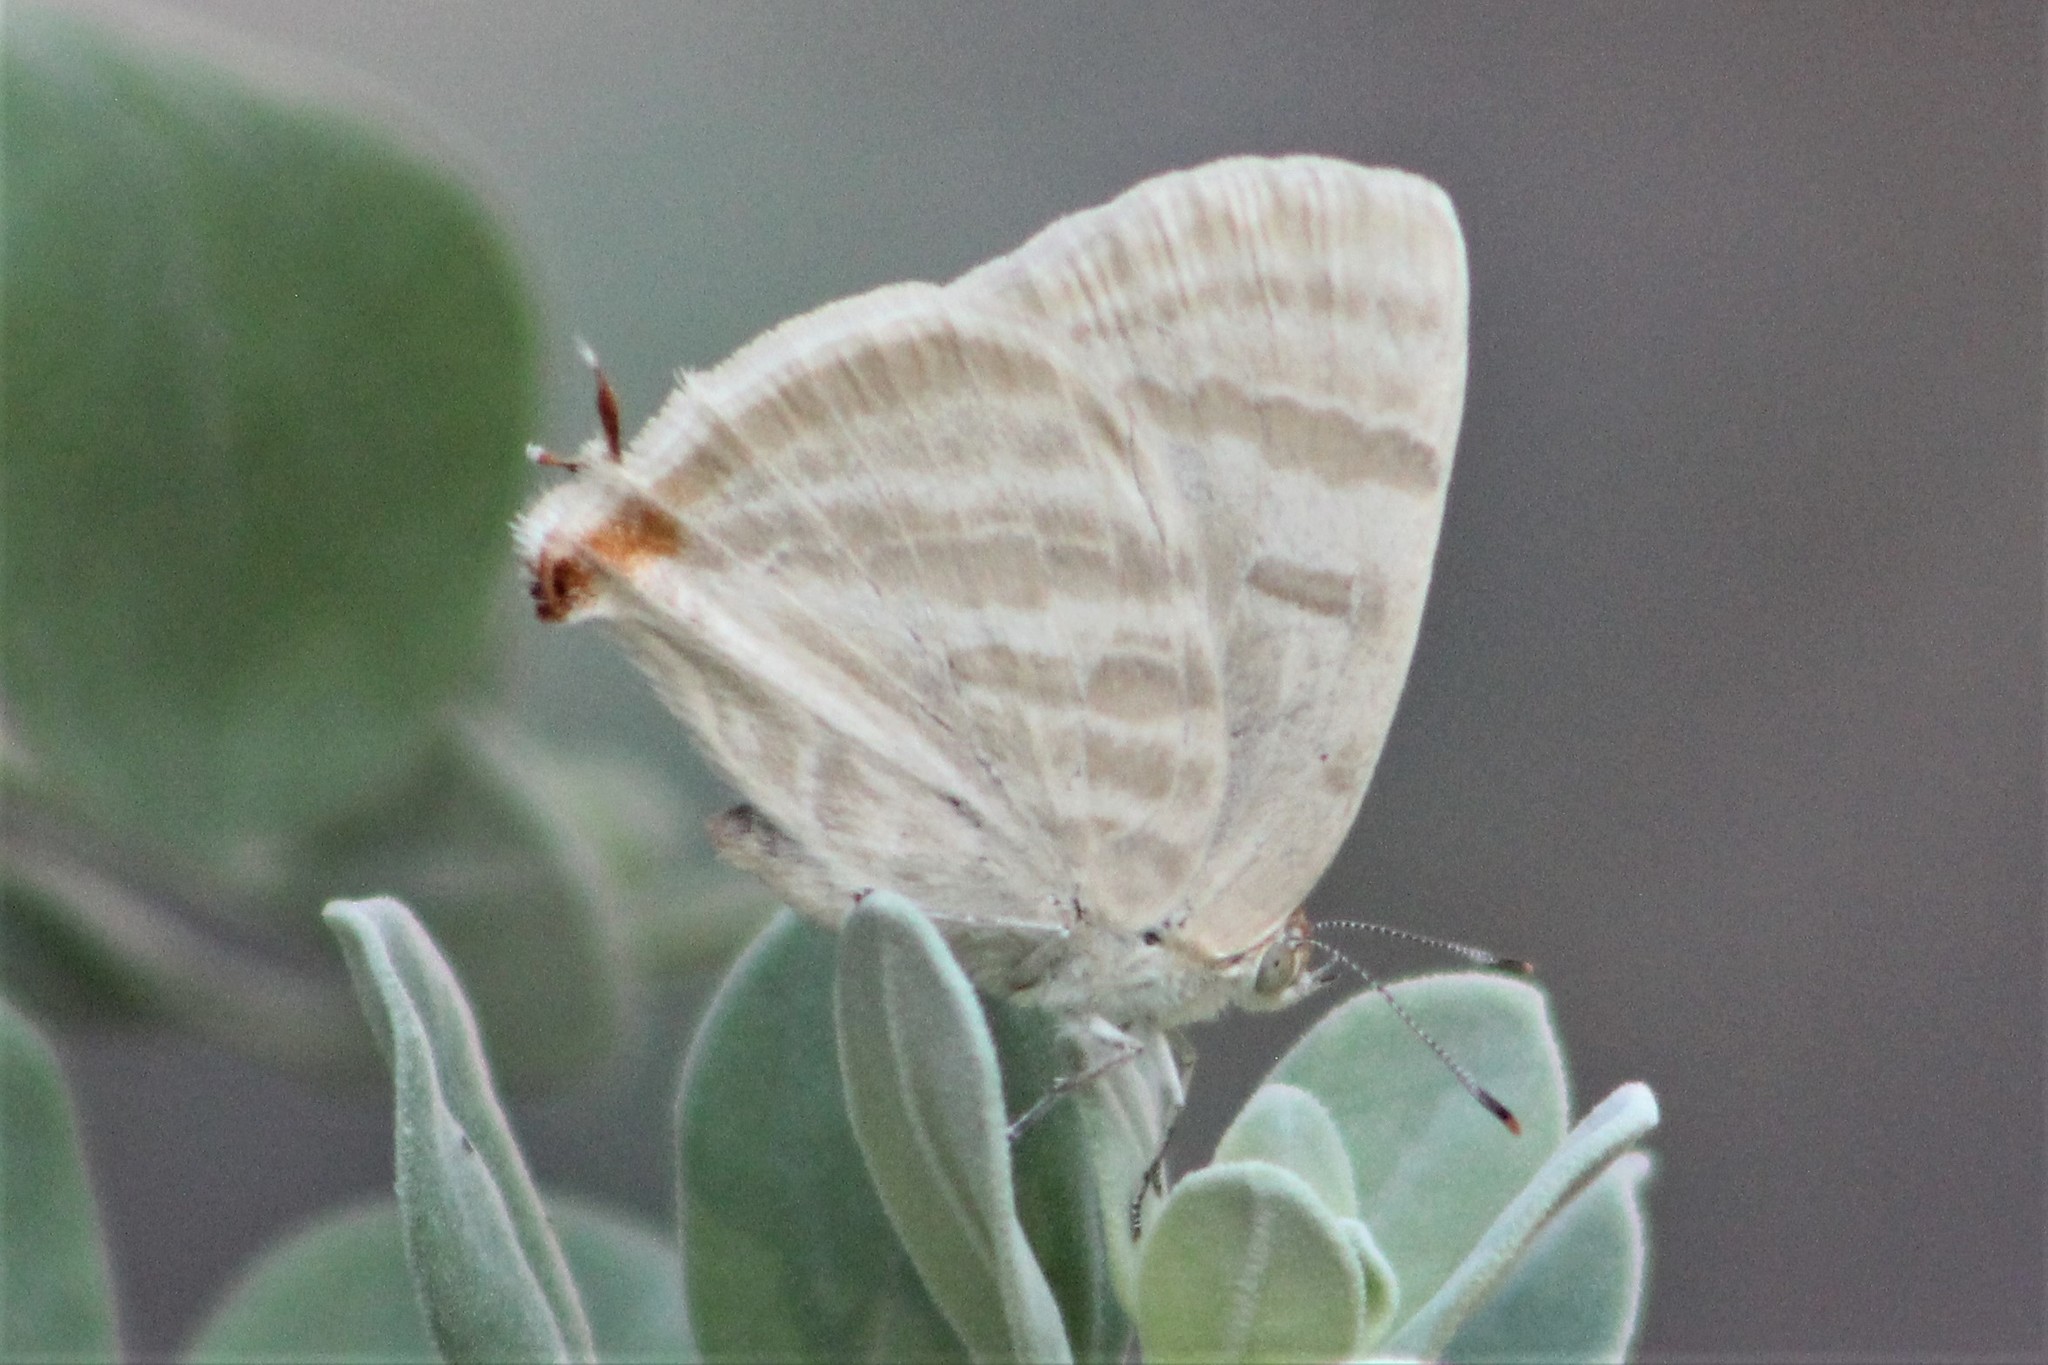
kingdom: Animalia
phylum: Arthropoda
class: Insecta
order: Lepidoptera
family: Lycaenidae
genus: Dolymorpha
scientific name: Dolymorpha jada
